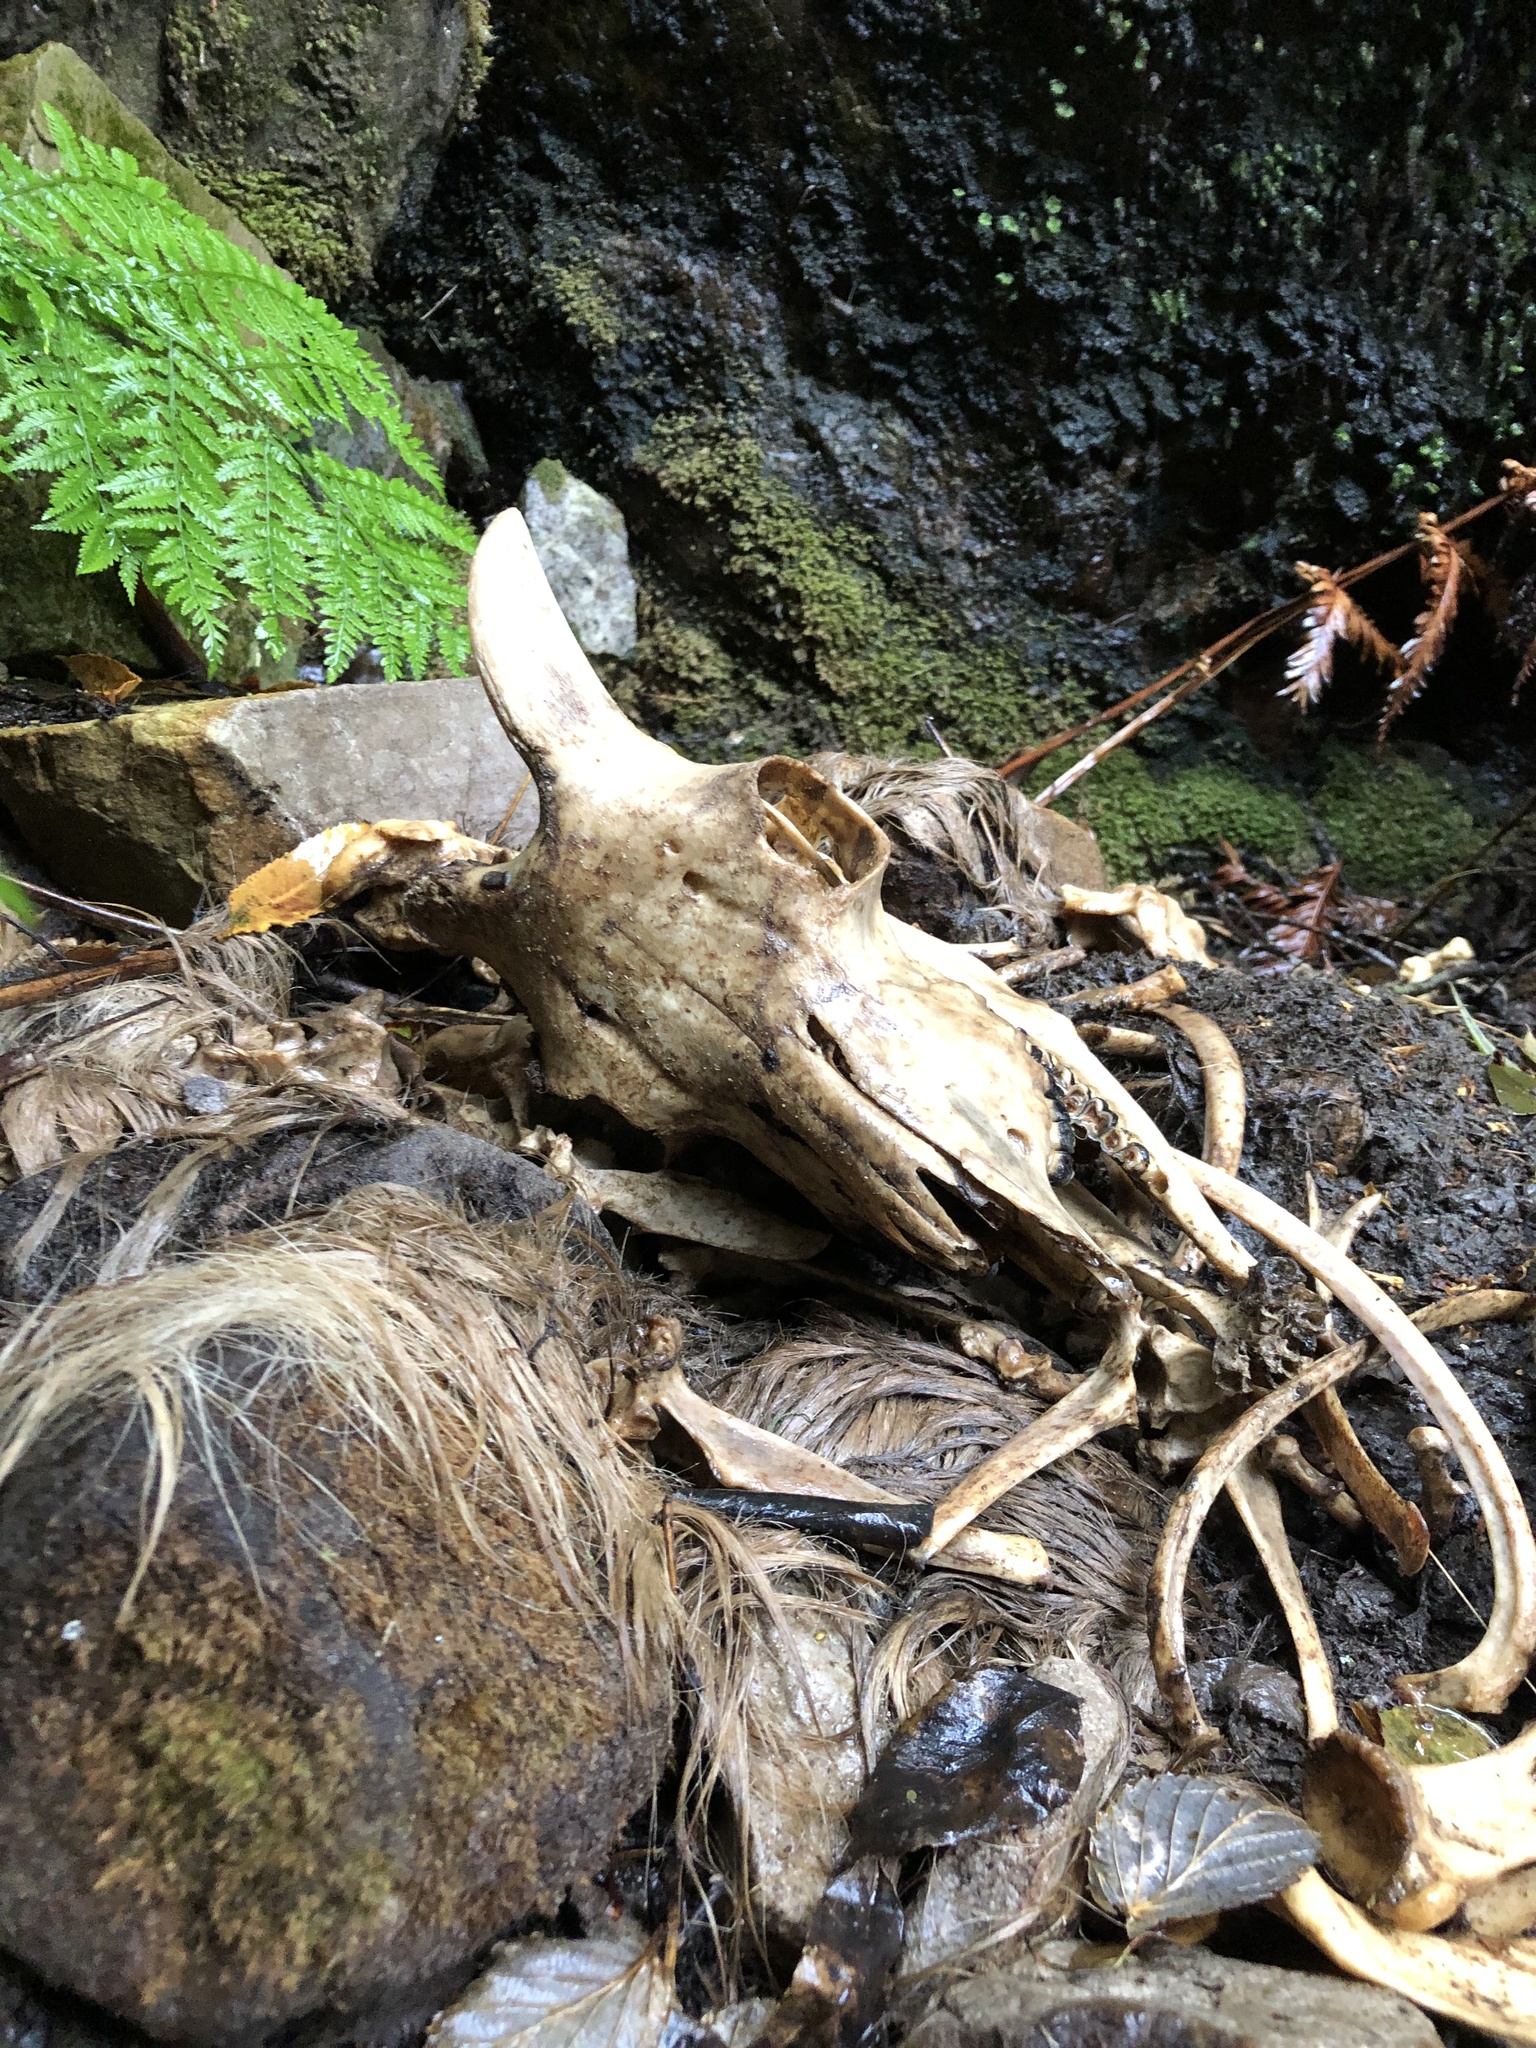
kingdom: Animalia
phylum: Chordata
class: Mammalia
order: Artiodactyla
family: Bovidae
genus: Hemitragus
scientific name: Hemitragus jemlahicus
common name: Himalayan tahr
